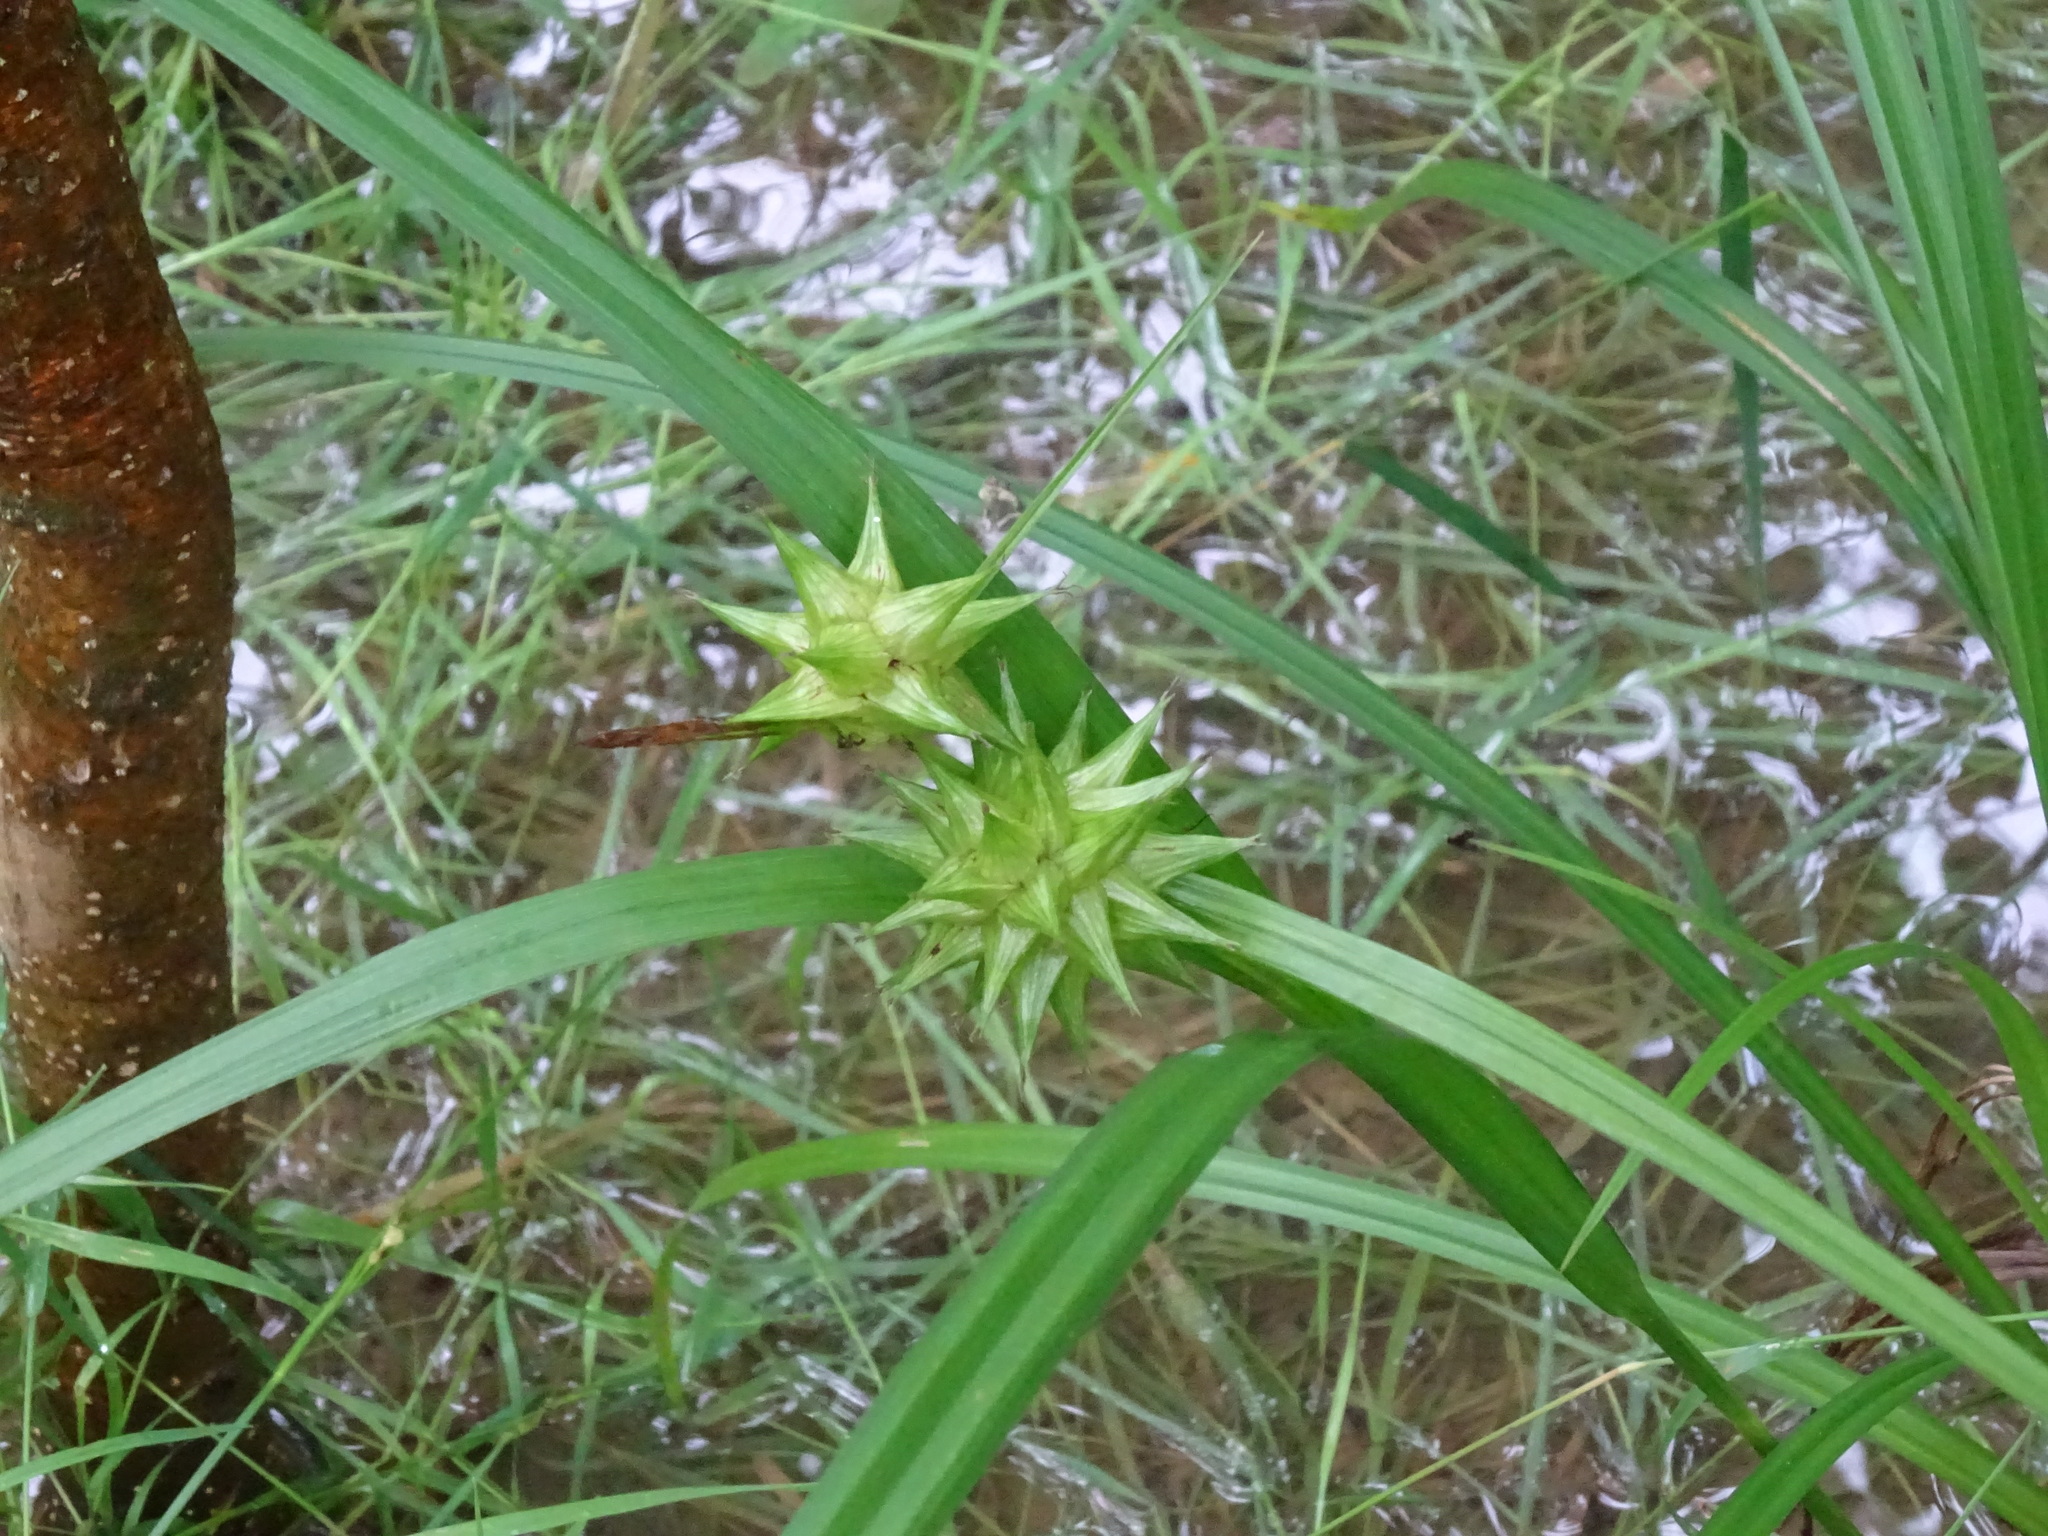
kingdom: Plantae
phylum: Tracheophyta
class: Liliopsida
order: Poales
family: Cyperaceae
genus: Carex
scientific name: Carex grayi
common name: Asa gray's sedge
